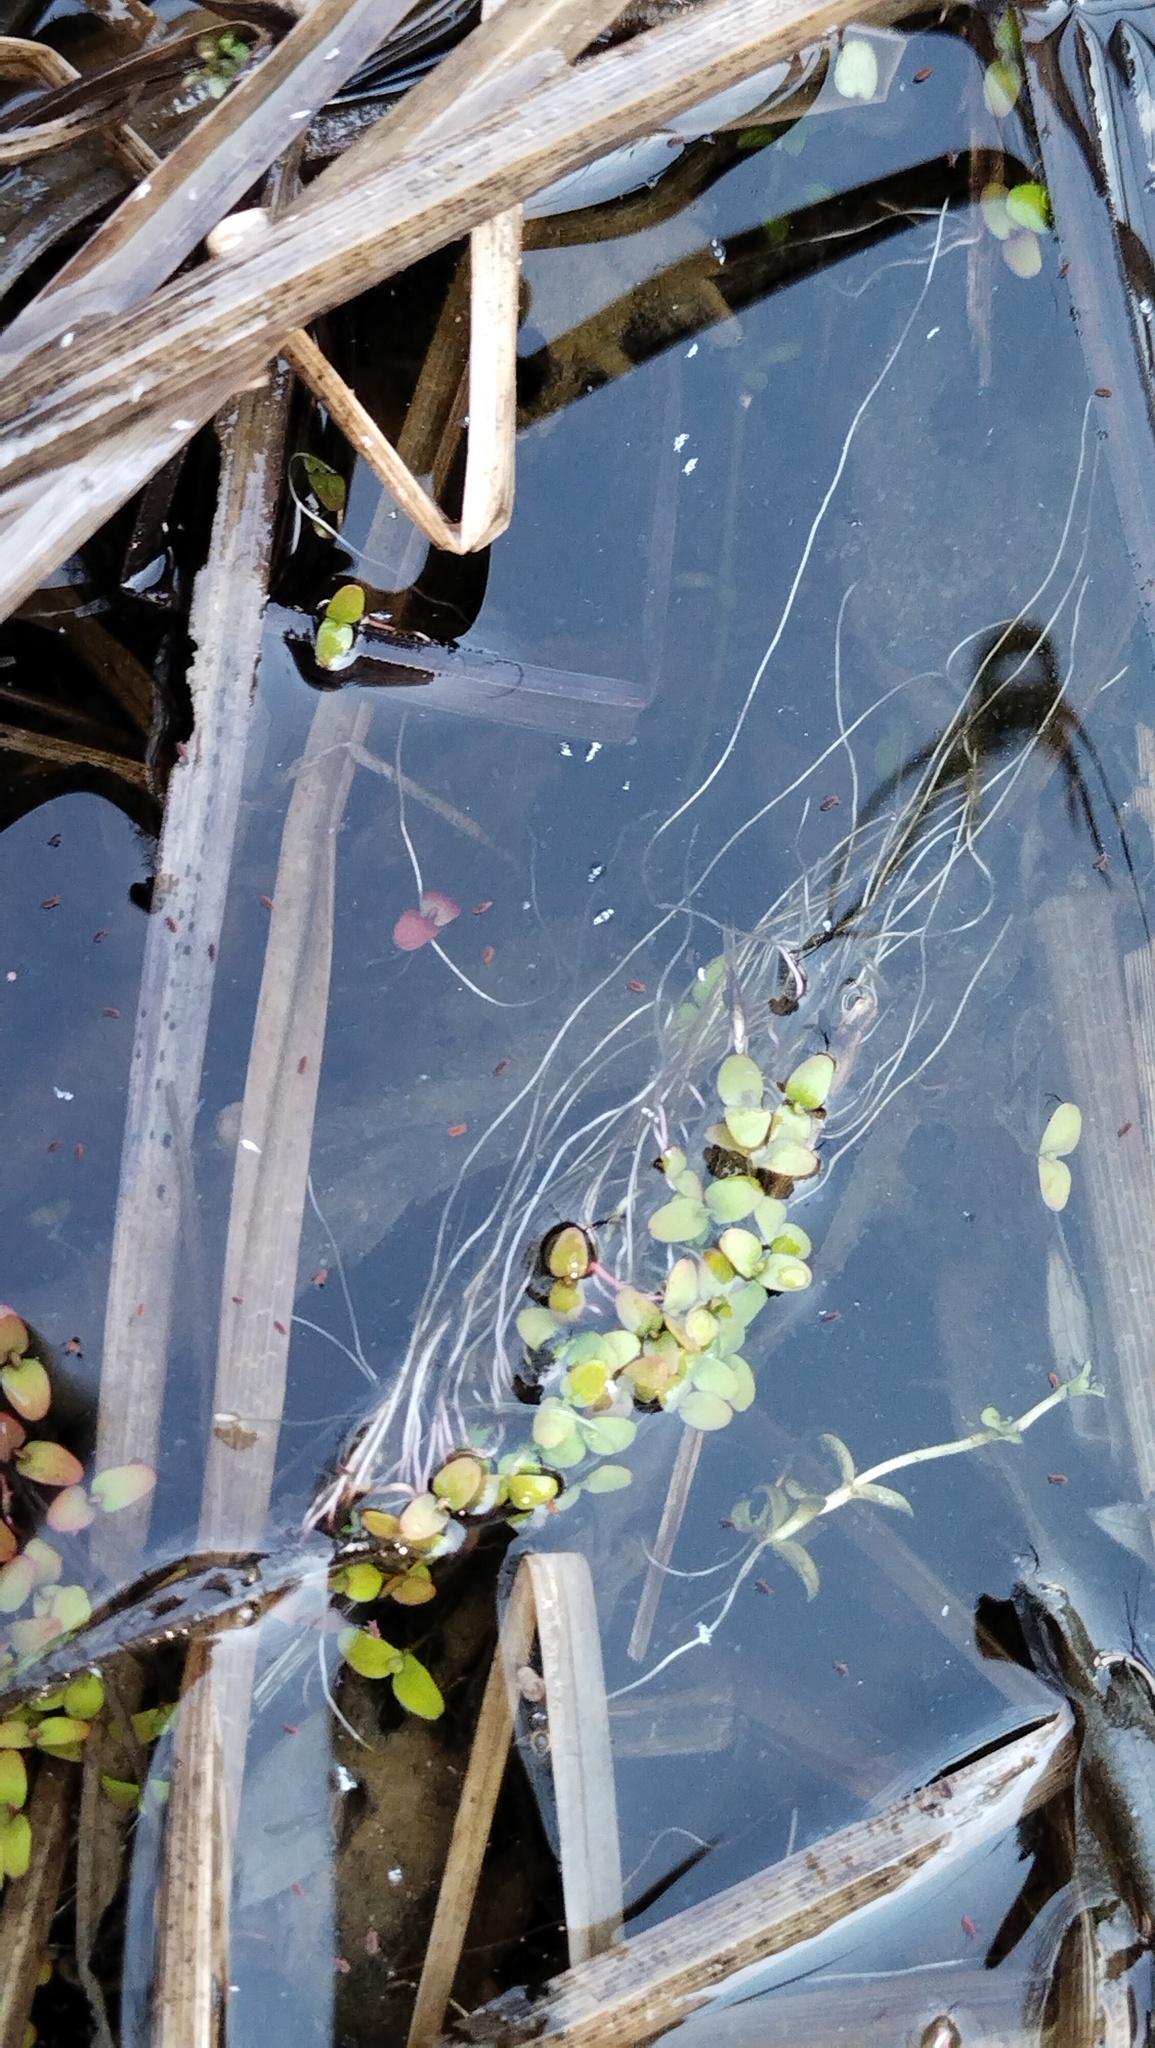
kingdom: Plantae
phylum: Tracheophyta
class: Liliopsida
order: Alismatales
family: Araceae
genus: Spirodela
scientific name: Spirodela polyrhiza
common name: Great duckweed
